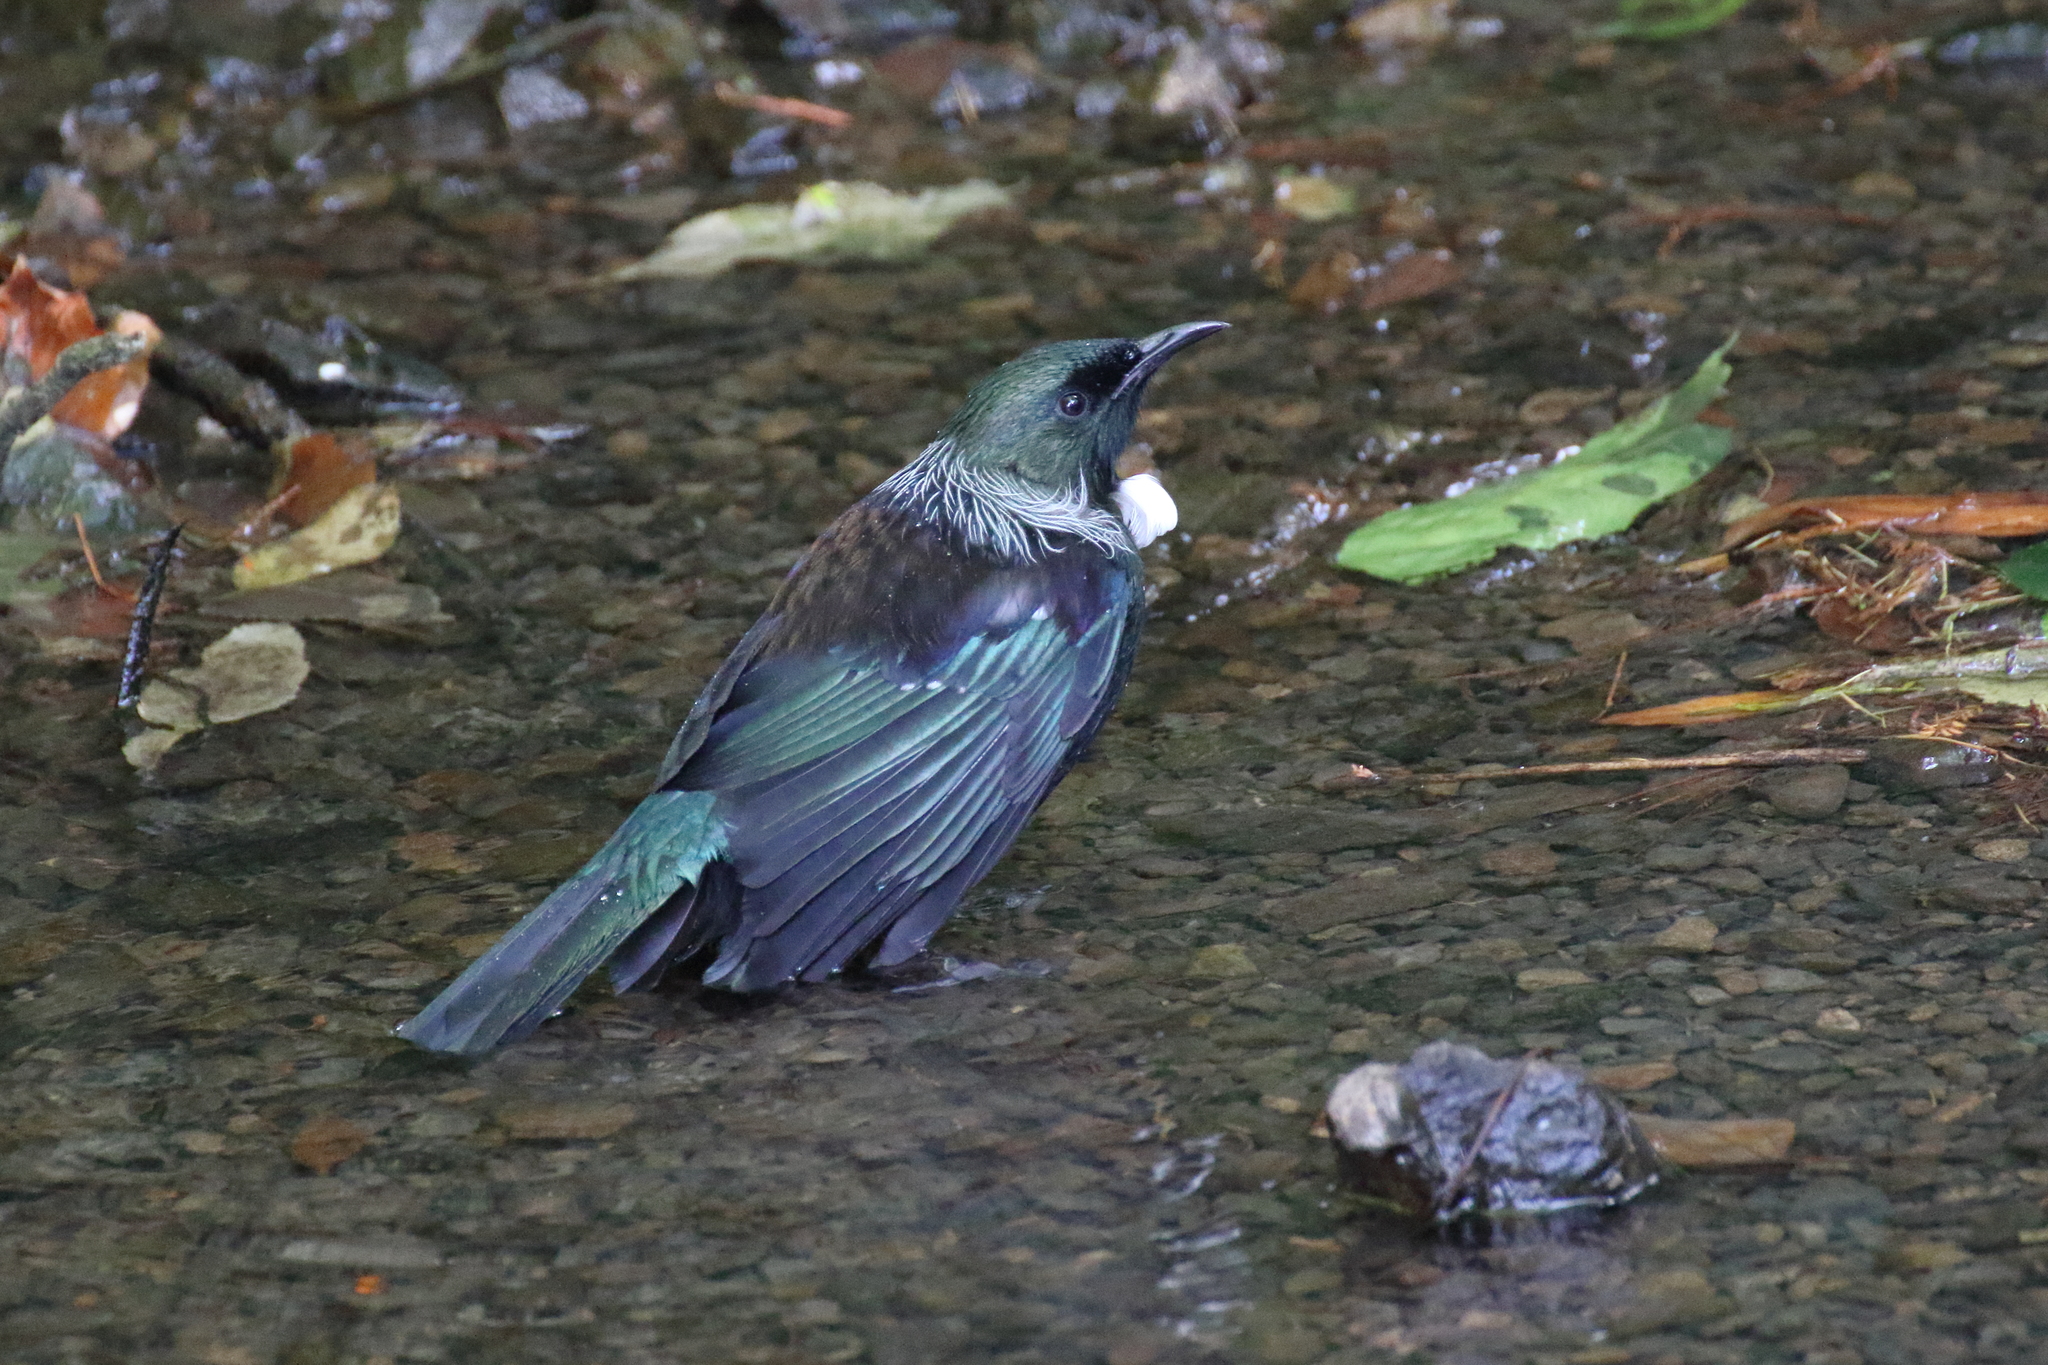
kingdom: Animalia
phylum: Chordata
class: Aves
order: Passeriformes
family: Meliphagidae
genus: Prosthemadera
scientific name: Prosthemadera novaeseelandiae
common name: Tui
